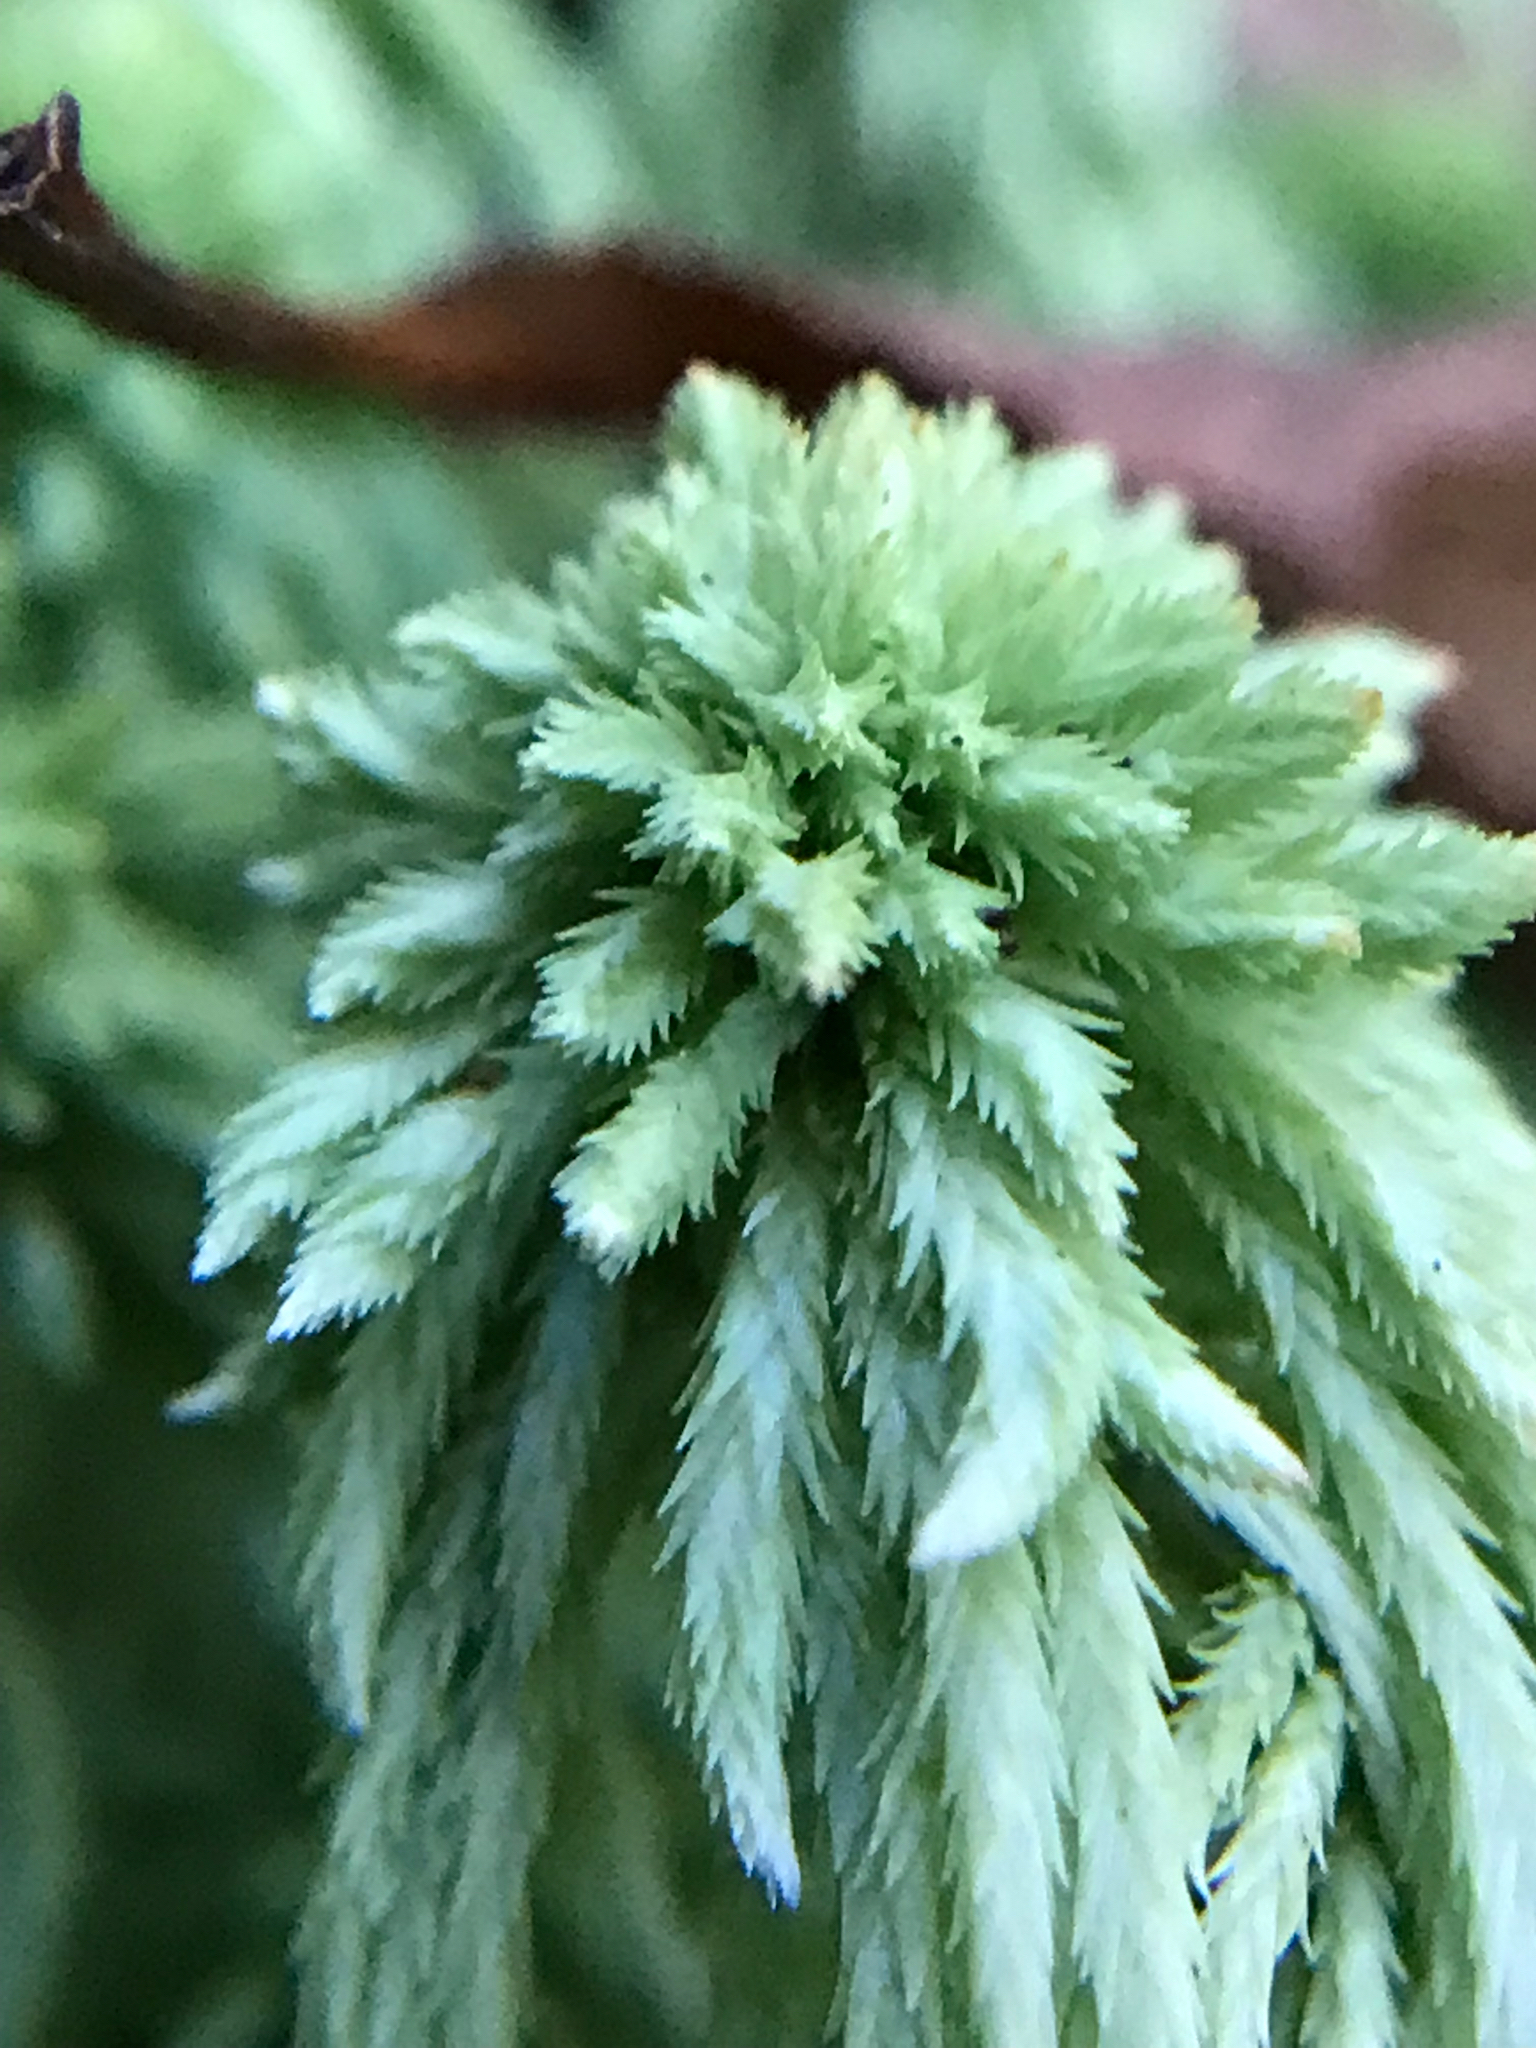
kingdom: Plantae
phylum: Bryophyta
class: Sphagnopsida
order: Sphagnales
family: Sphagnaceae
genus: Sphagnum
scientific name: Sphagnum quinquefarium
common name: Five-ranked peat moss
